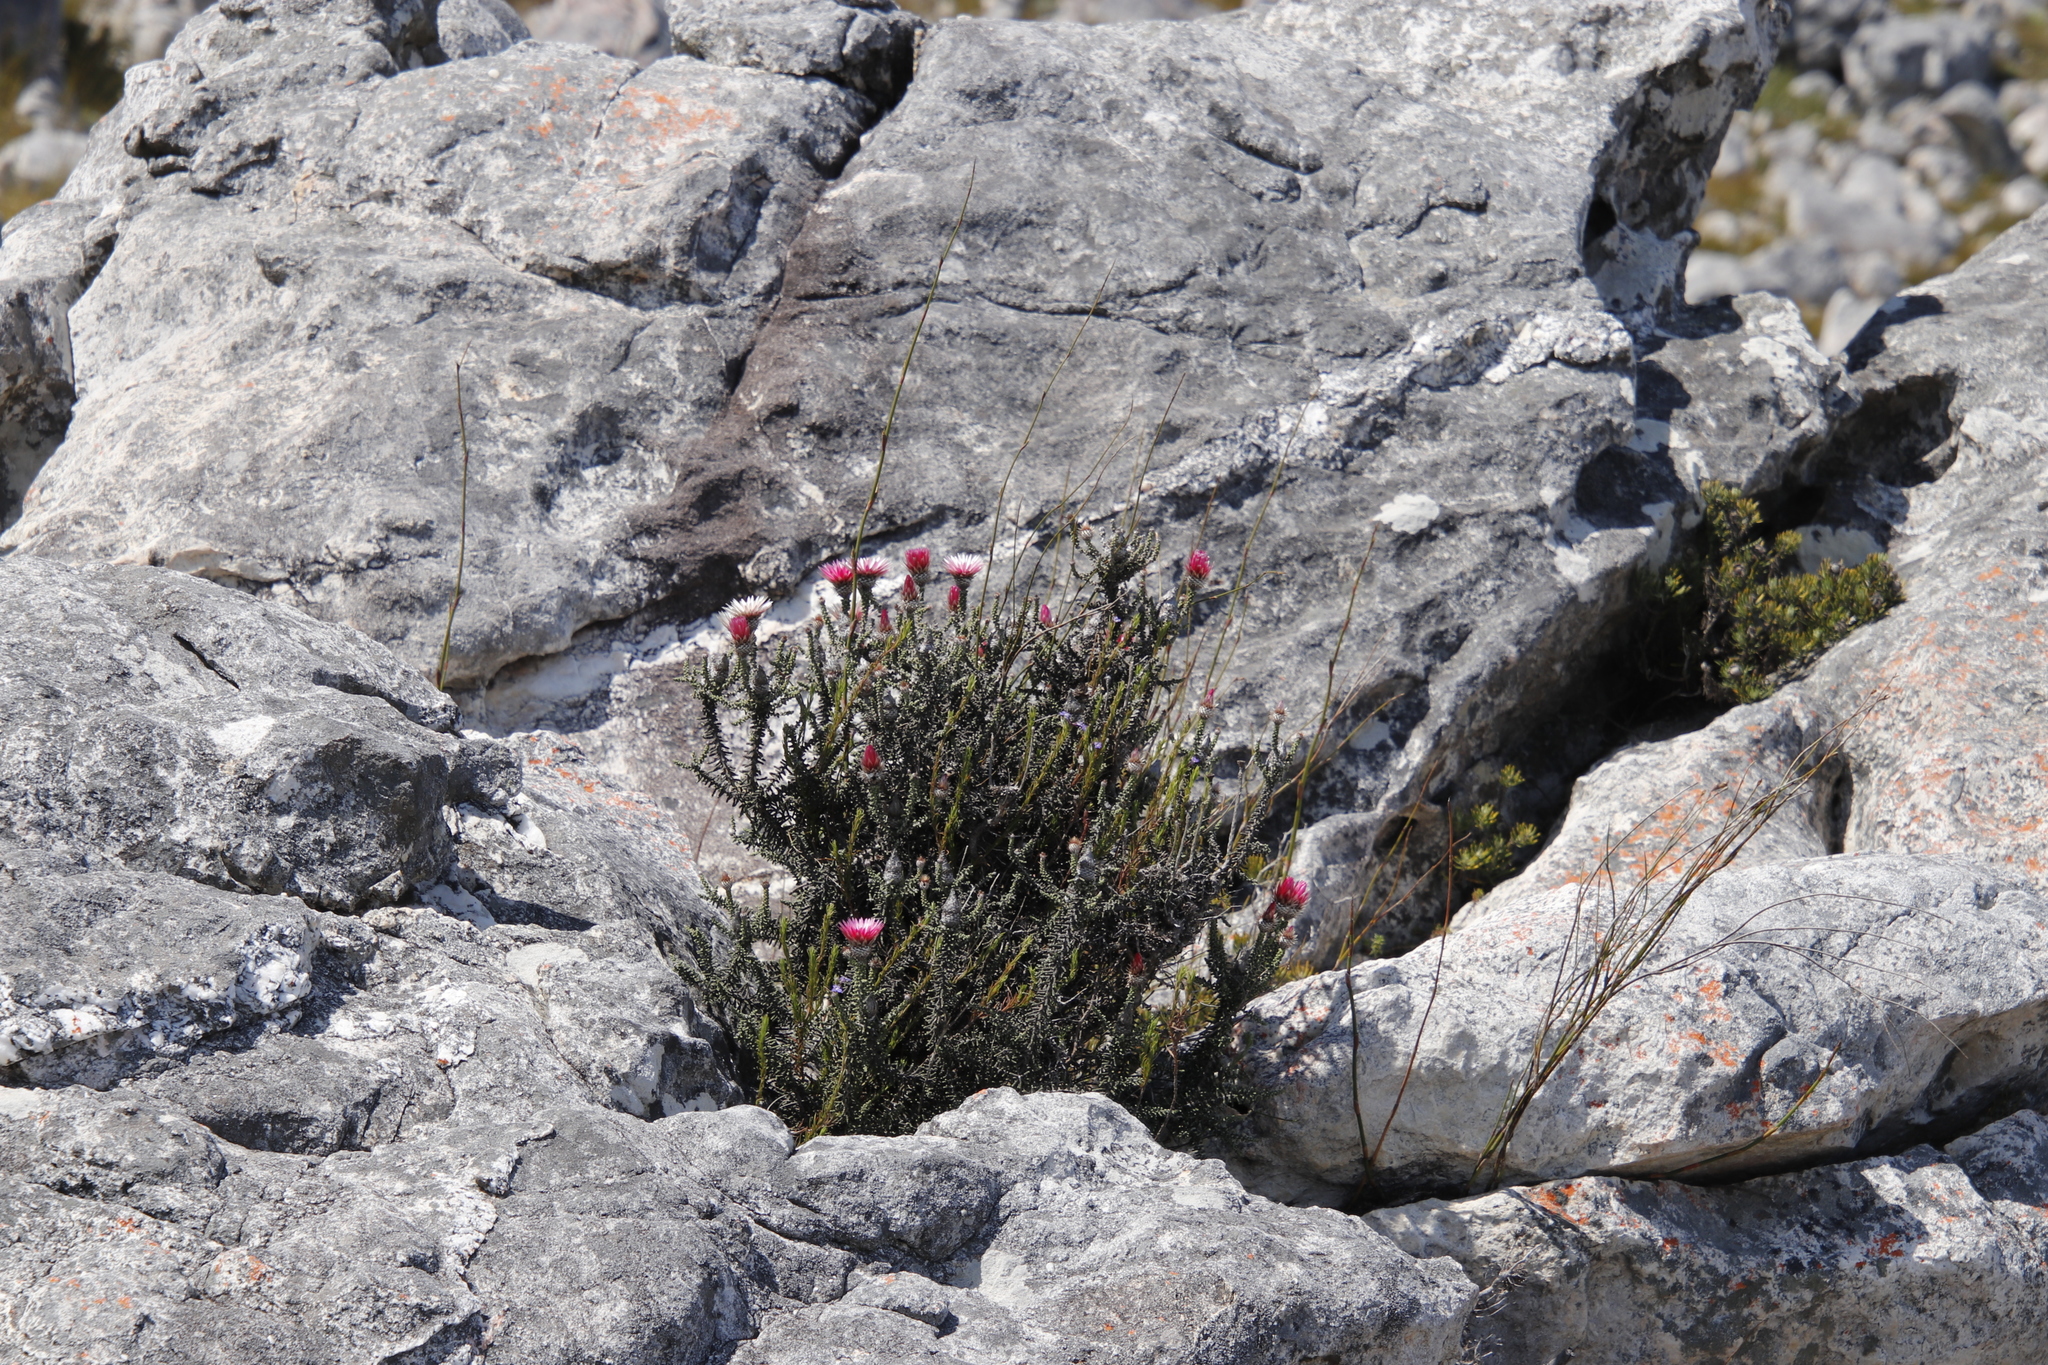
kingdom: Plantae
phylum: Tracheophyta
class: Magnoliopsida
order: Asterales
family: Asteraceae
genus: Phaenocoma
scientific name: Phaenocoma prolifera
